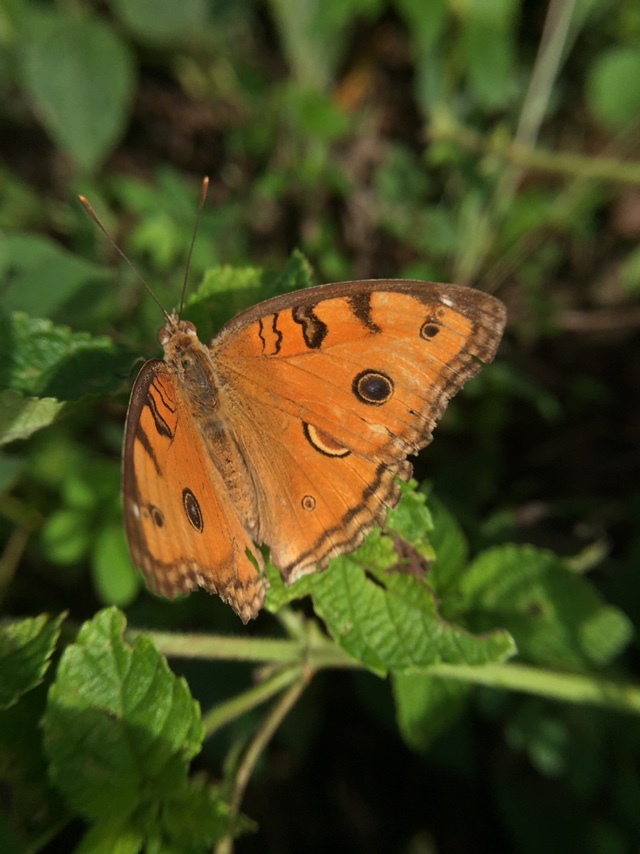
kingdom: Animalia
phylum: Arthropoda
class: Insecta
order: Lepidoptera
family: Nymphalidae
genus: Junonia
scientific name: Junonia almana
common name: Peacock pansy
